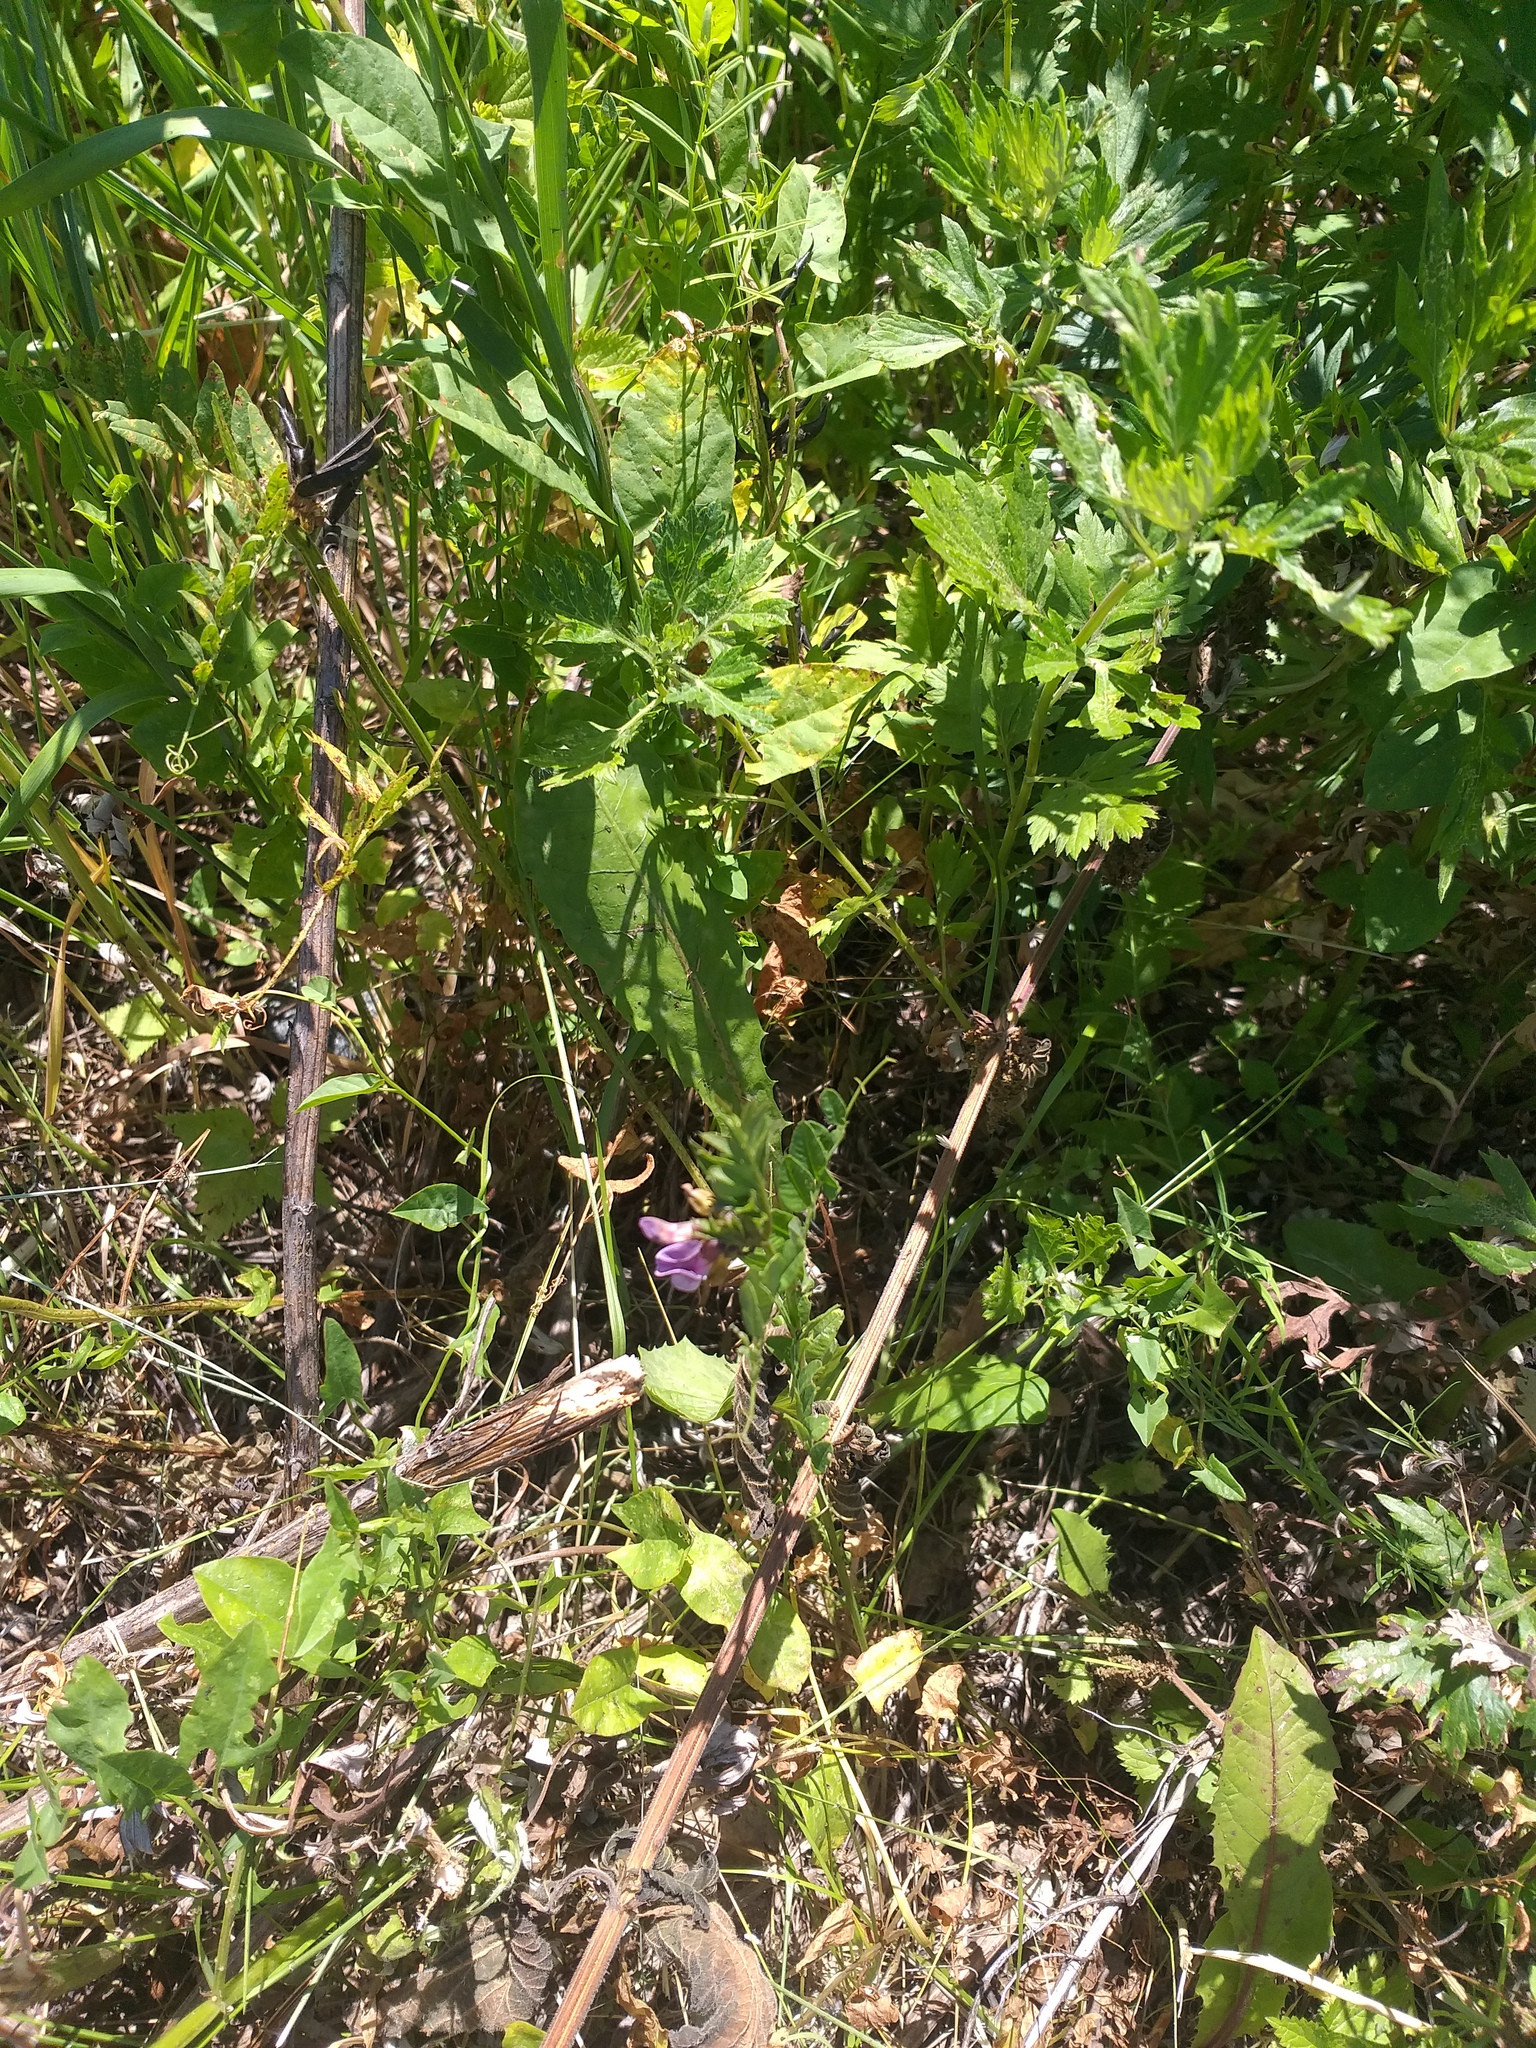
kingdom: Plantae
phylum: Tracheophyta
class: Magnoliopsida
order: Fabales
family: Fabaceae
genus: Vicia
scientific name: Vicia sepium
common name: Bush vetch
